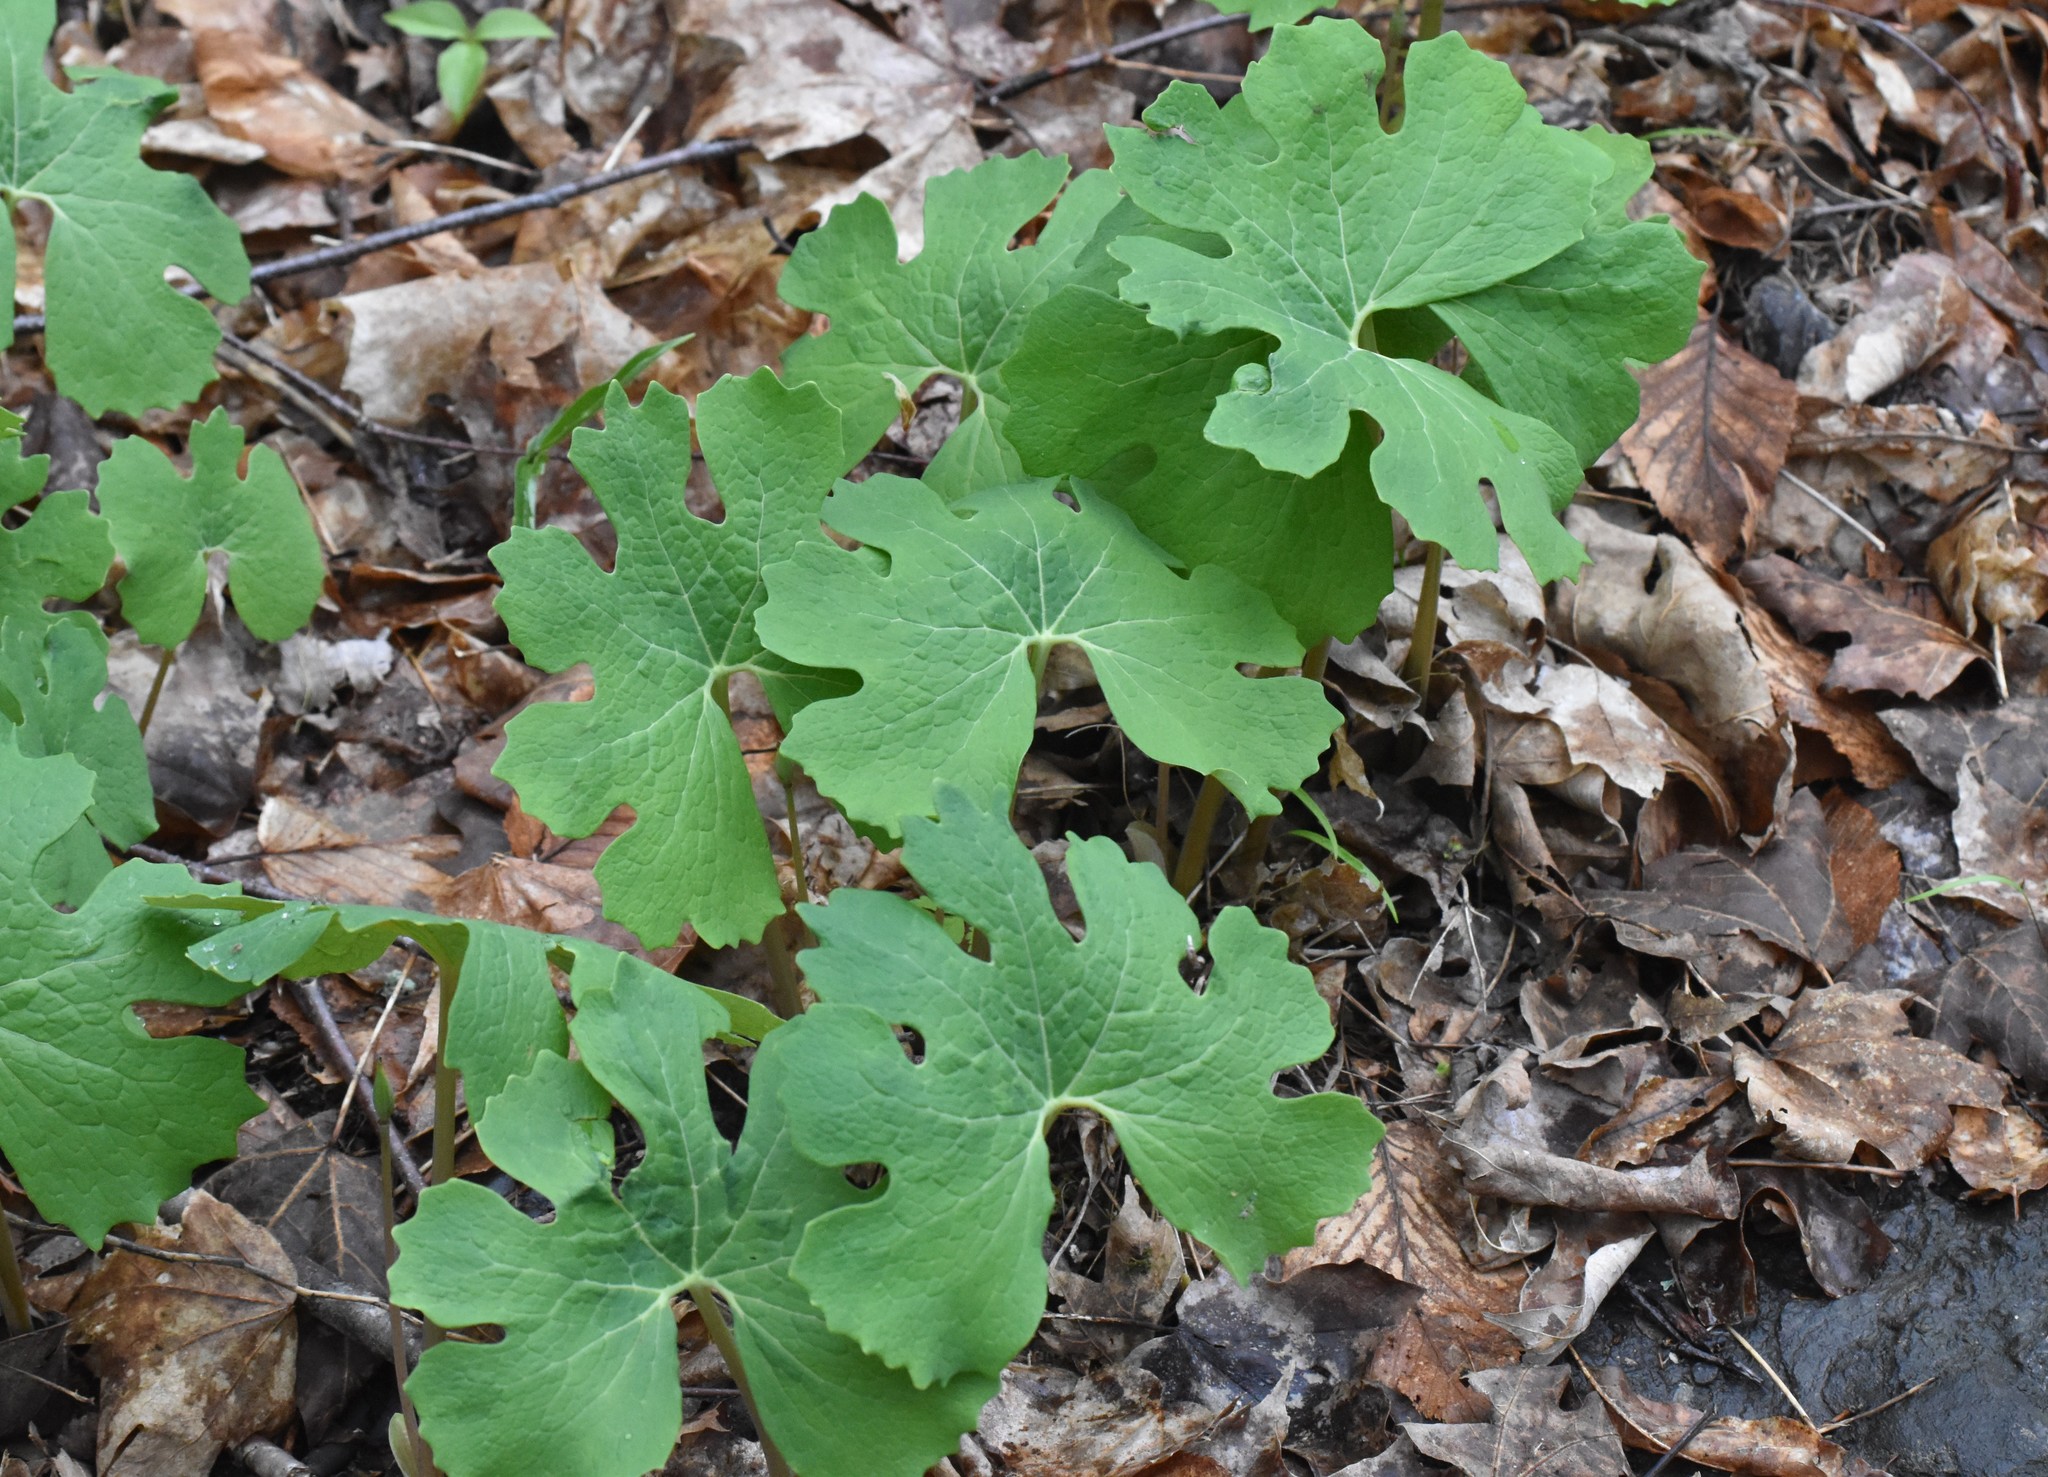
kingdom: Plantae
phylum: Tracheophyta
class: Magnoliopsida
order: Ranunculales
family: Papaveraceae
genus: Sanguinaria
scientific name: Sanguinaria canadensis
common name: Bloodroot
